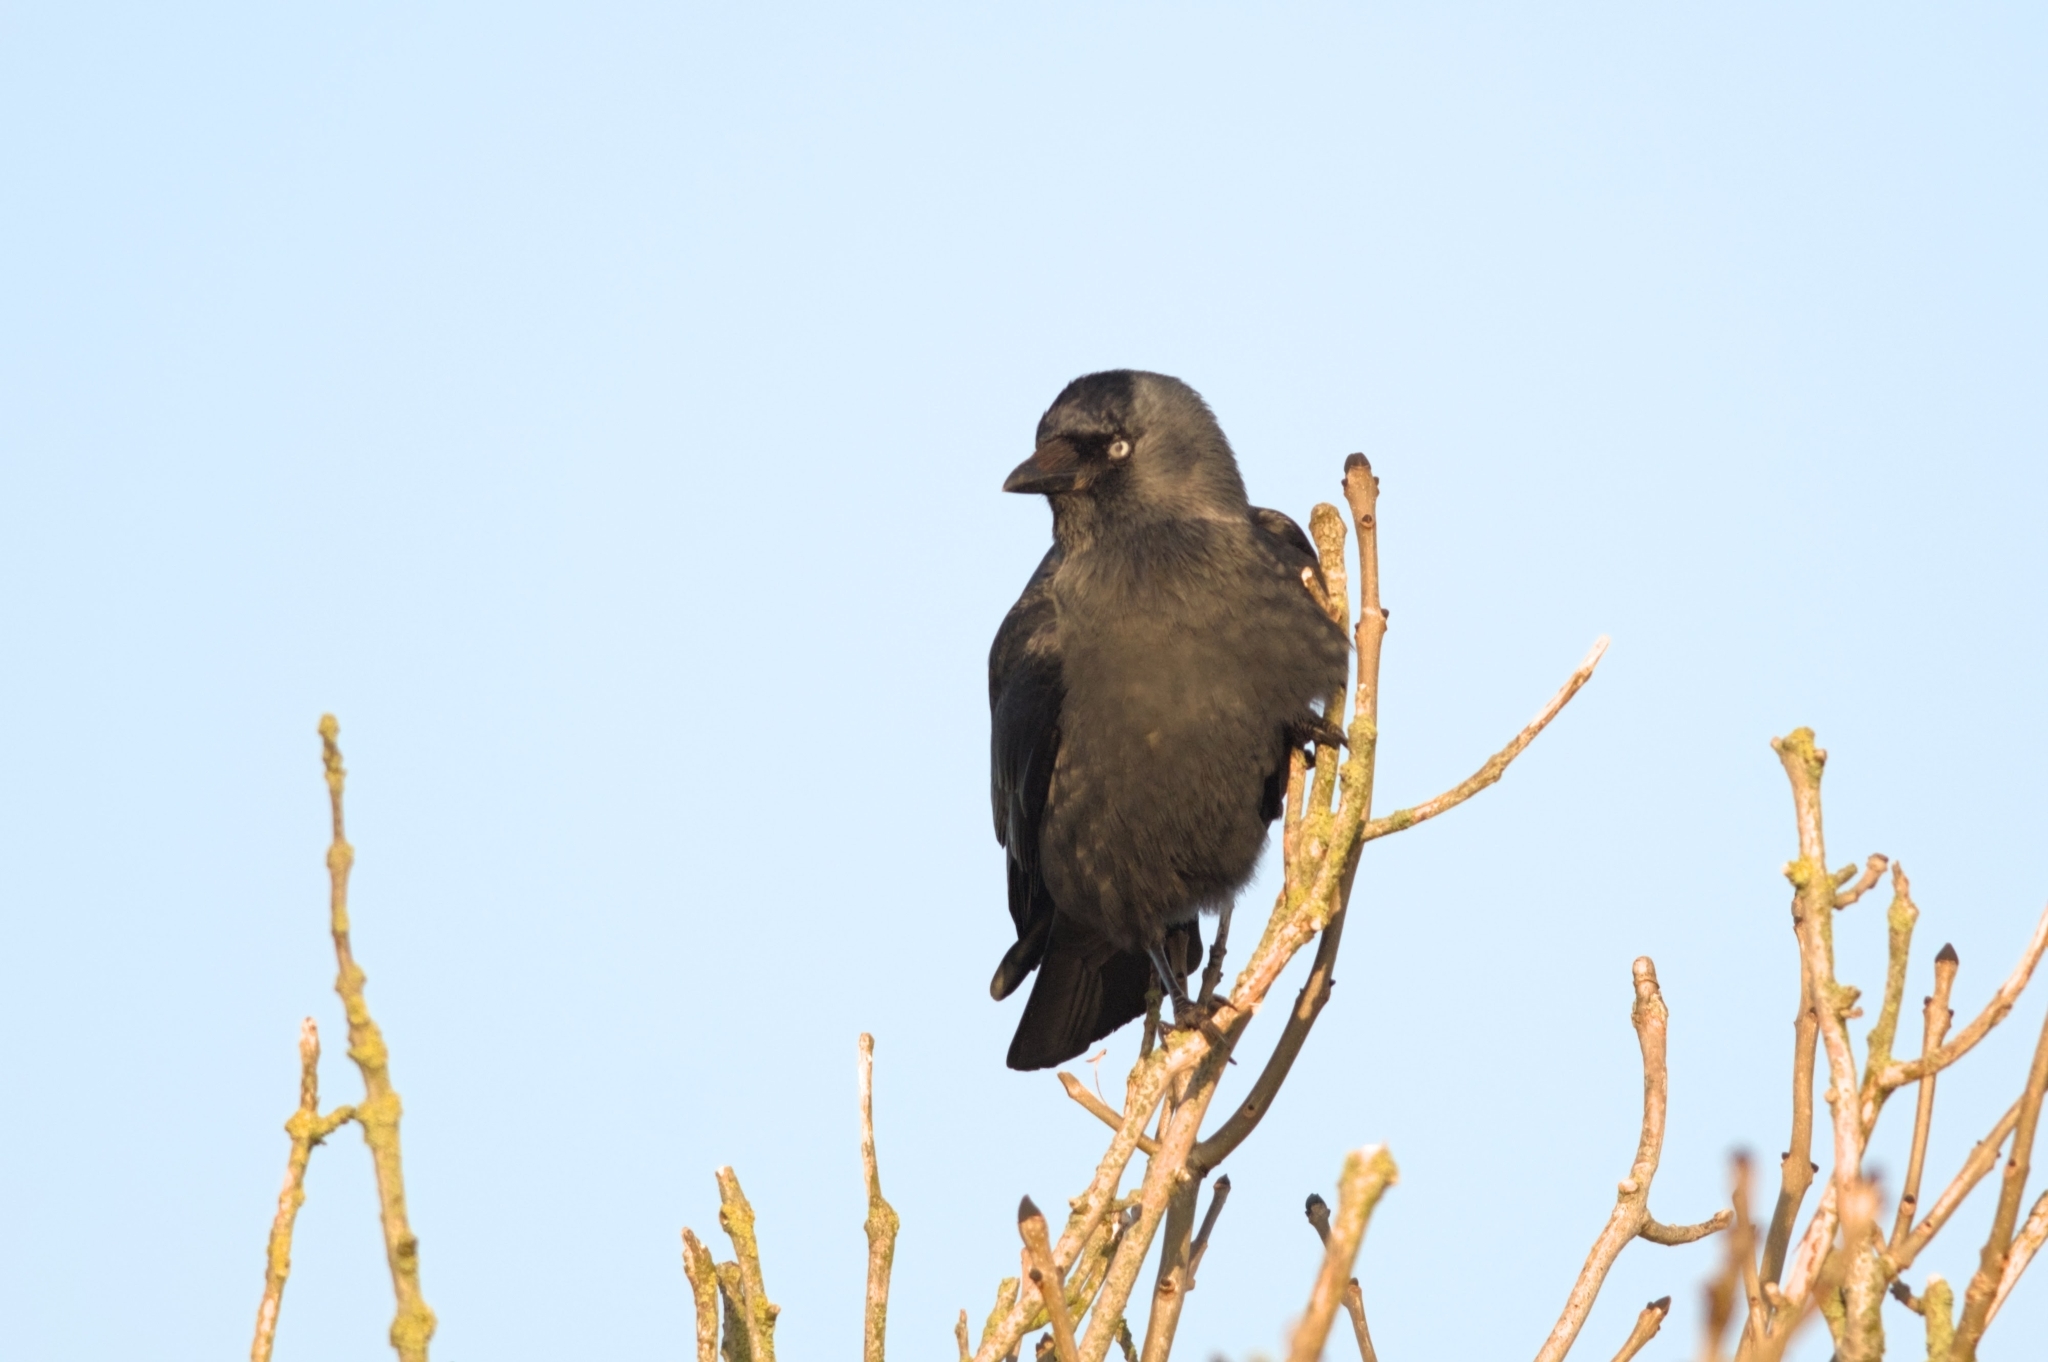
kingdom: Animalia
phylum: Chordata
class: Aves
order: Passeriformes
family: Corvidae
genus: Coloeus
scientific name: Coloeus monedula
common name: Western jackdaw
